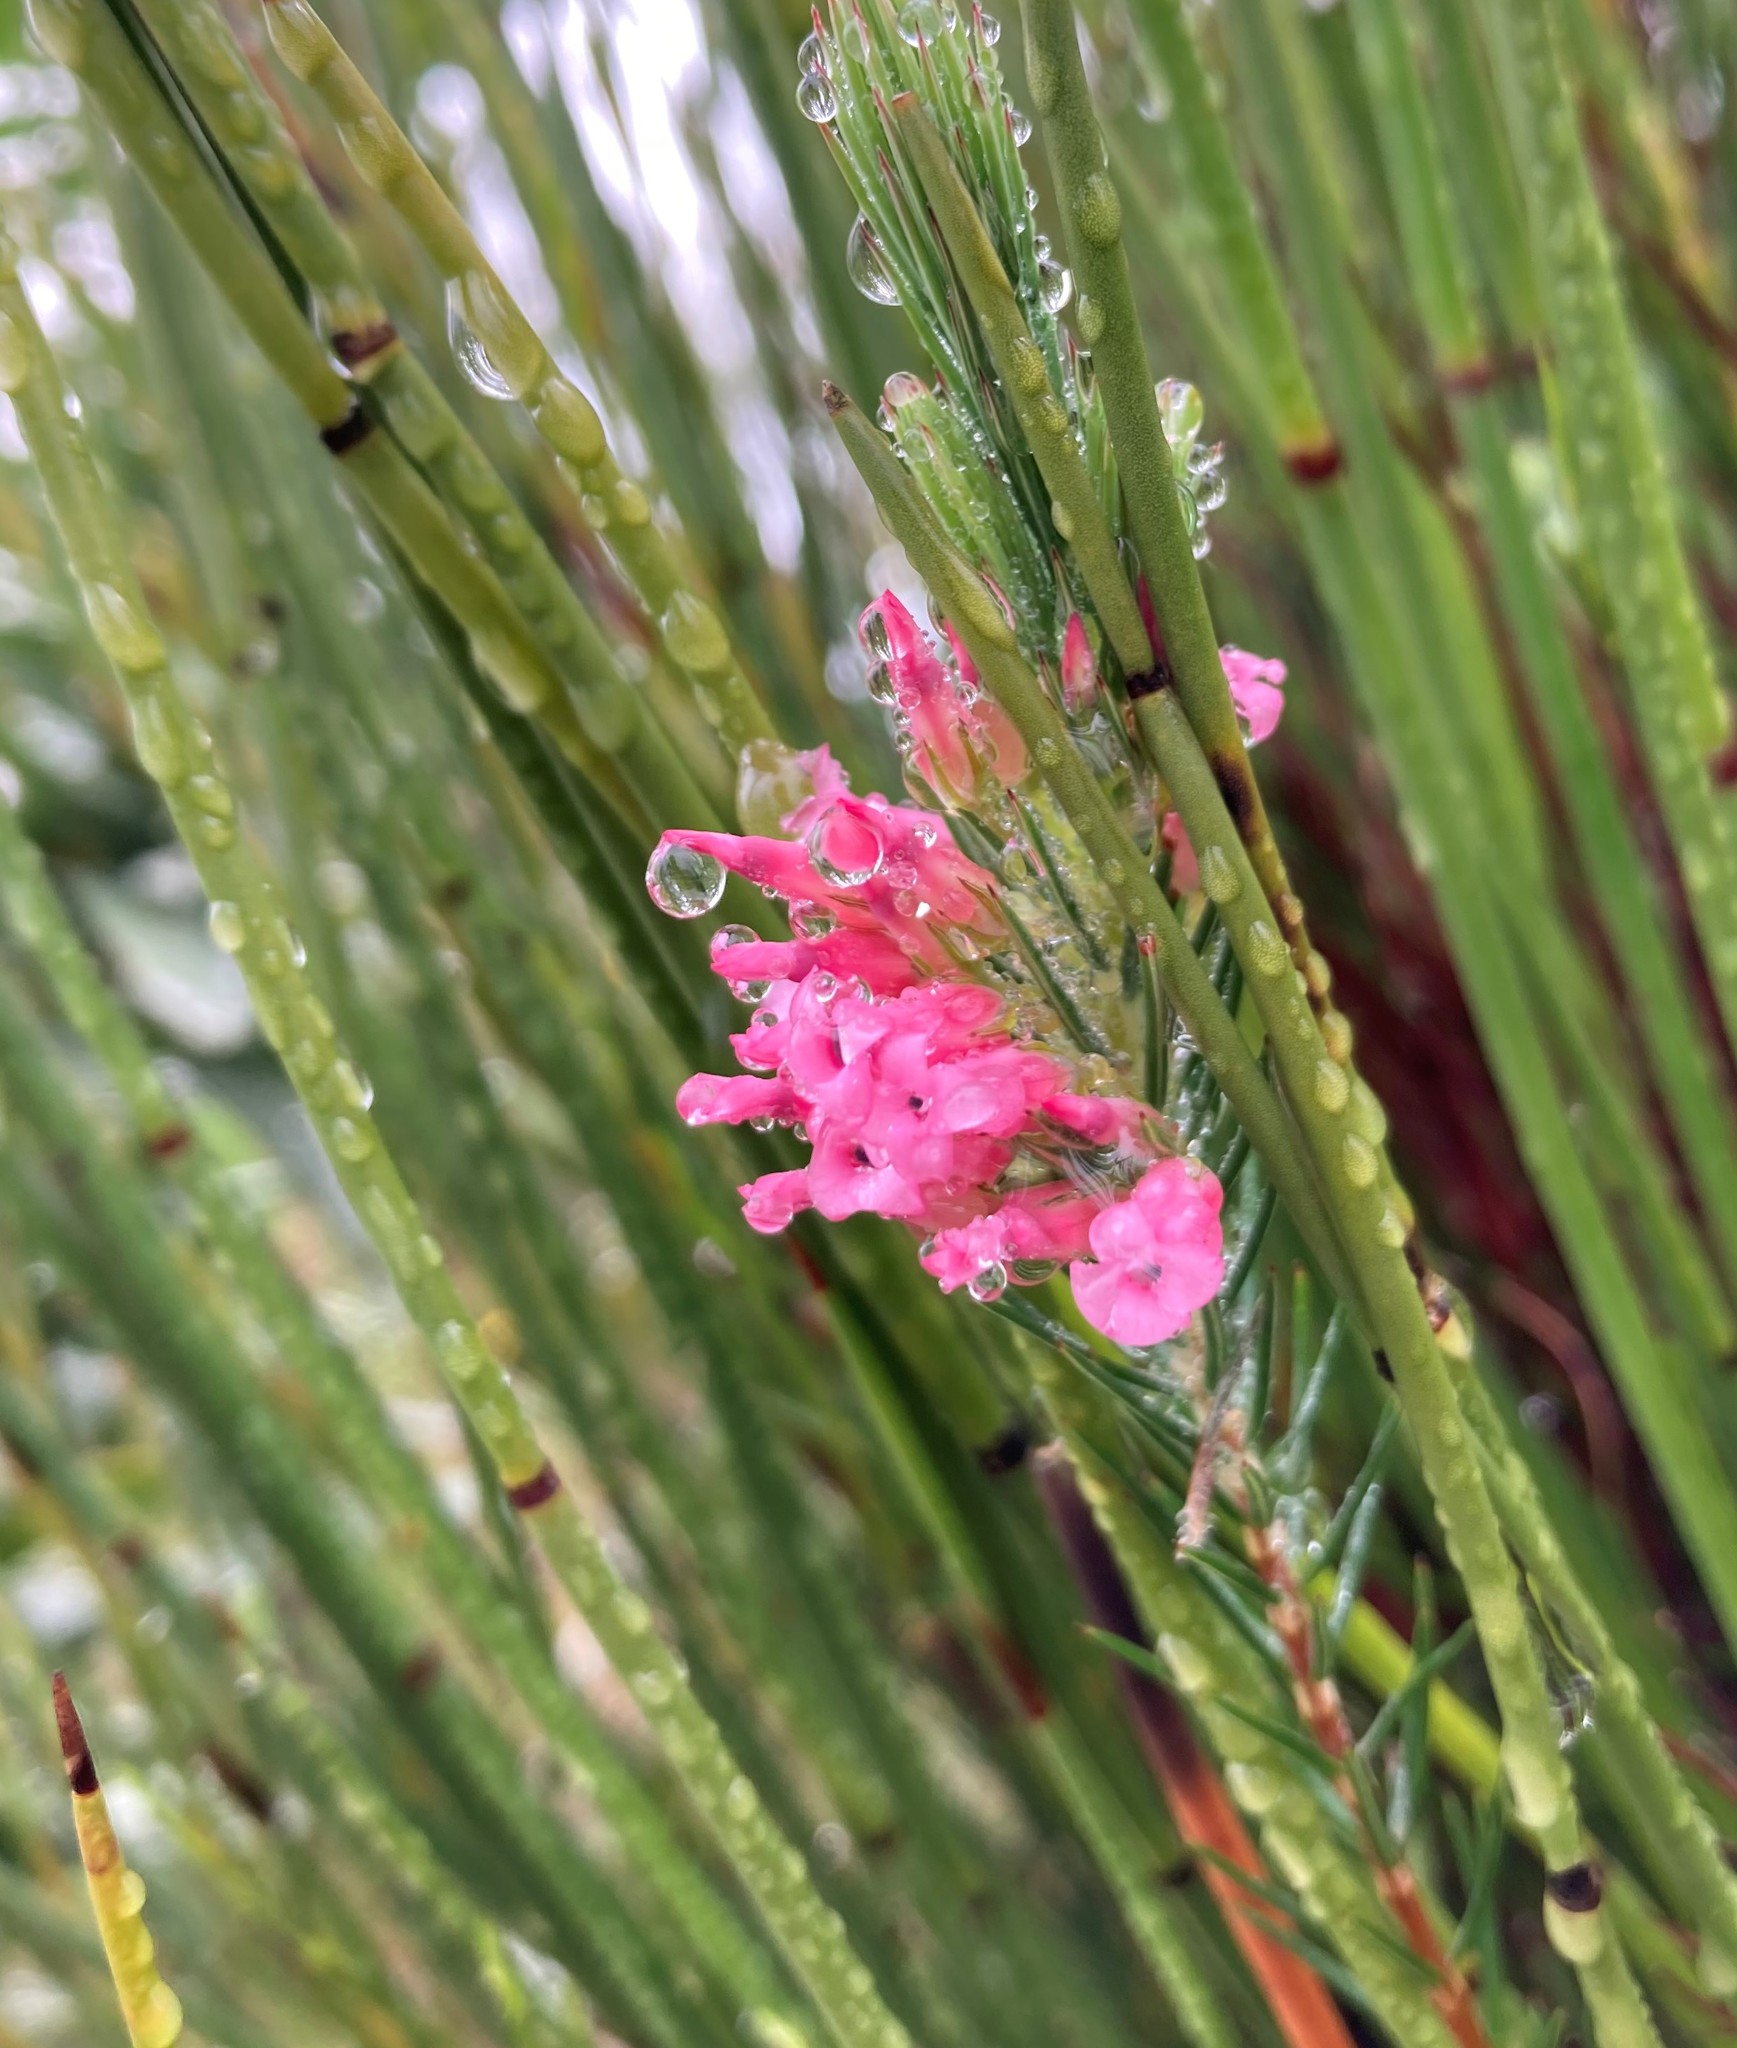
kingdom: Plantae
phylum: Tracheophyta
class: Magnoliopsida
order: Ericales
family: Ericaceae
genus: Erica
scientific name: Erica georgica
